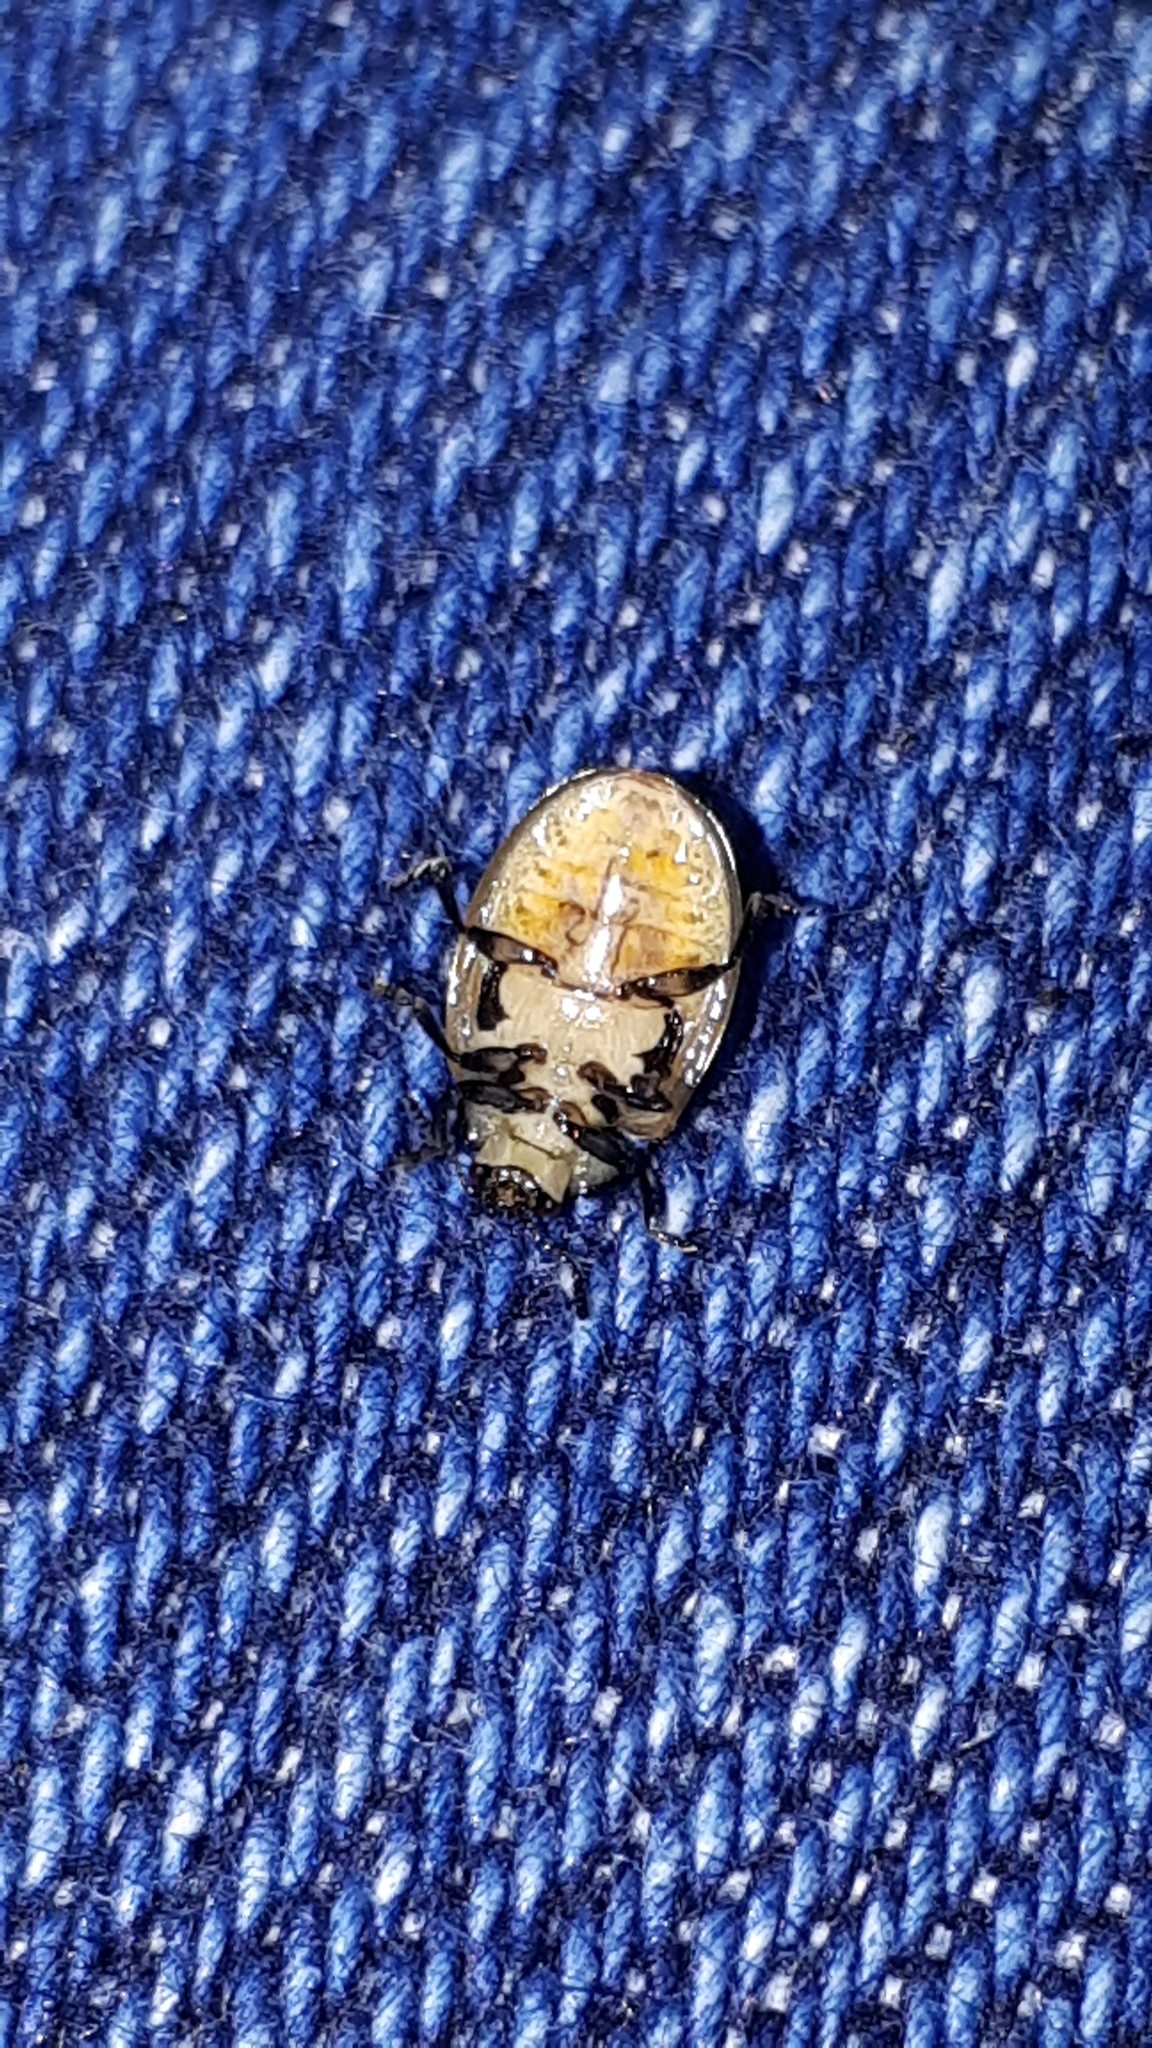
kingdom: Animalia
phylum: Arthropoda
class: Insecta
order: Coleoptera
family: Chrysomelidae
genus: Plagiodera
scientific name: Plagiodera versicolora
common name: Imported willow leaf beetle
